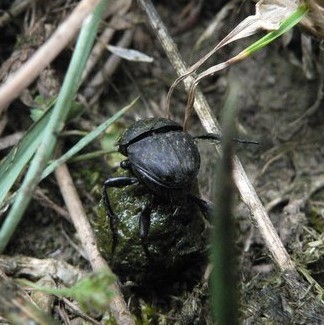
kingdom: Animalia
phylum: Arthropoda
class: Insecta
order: Coleoptera
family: Scarabaeidae
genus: Sisyphus
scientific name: Sisyphus schaefferi
